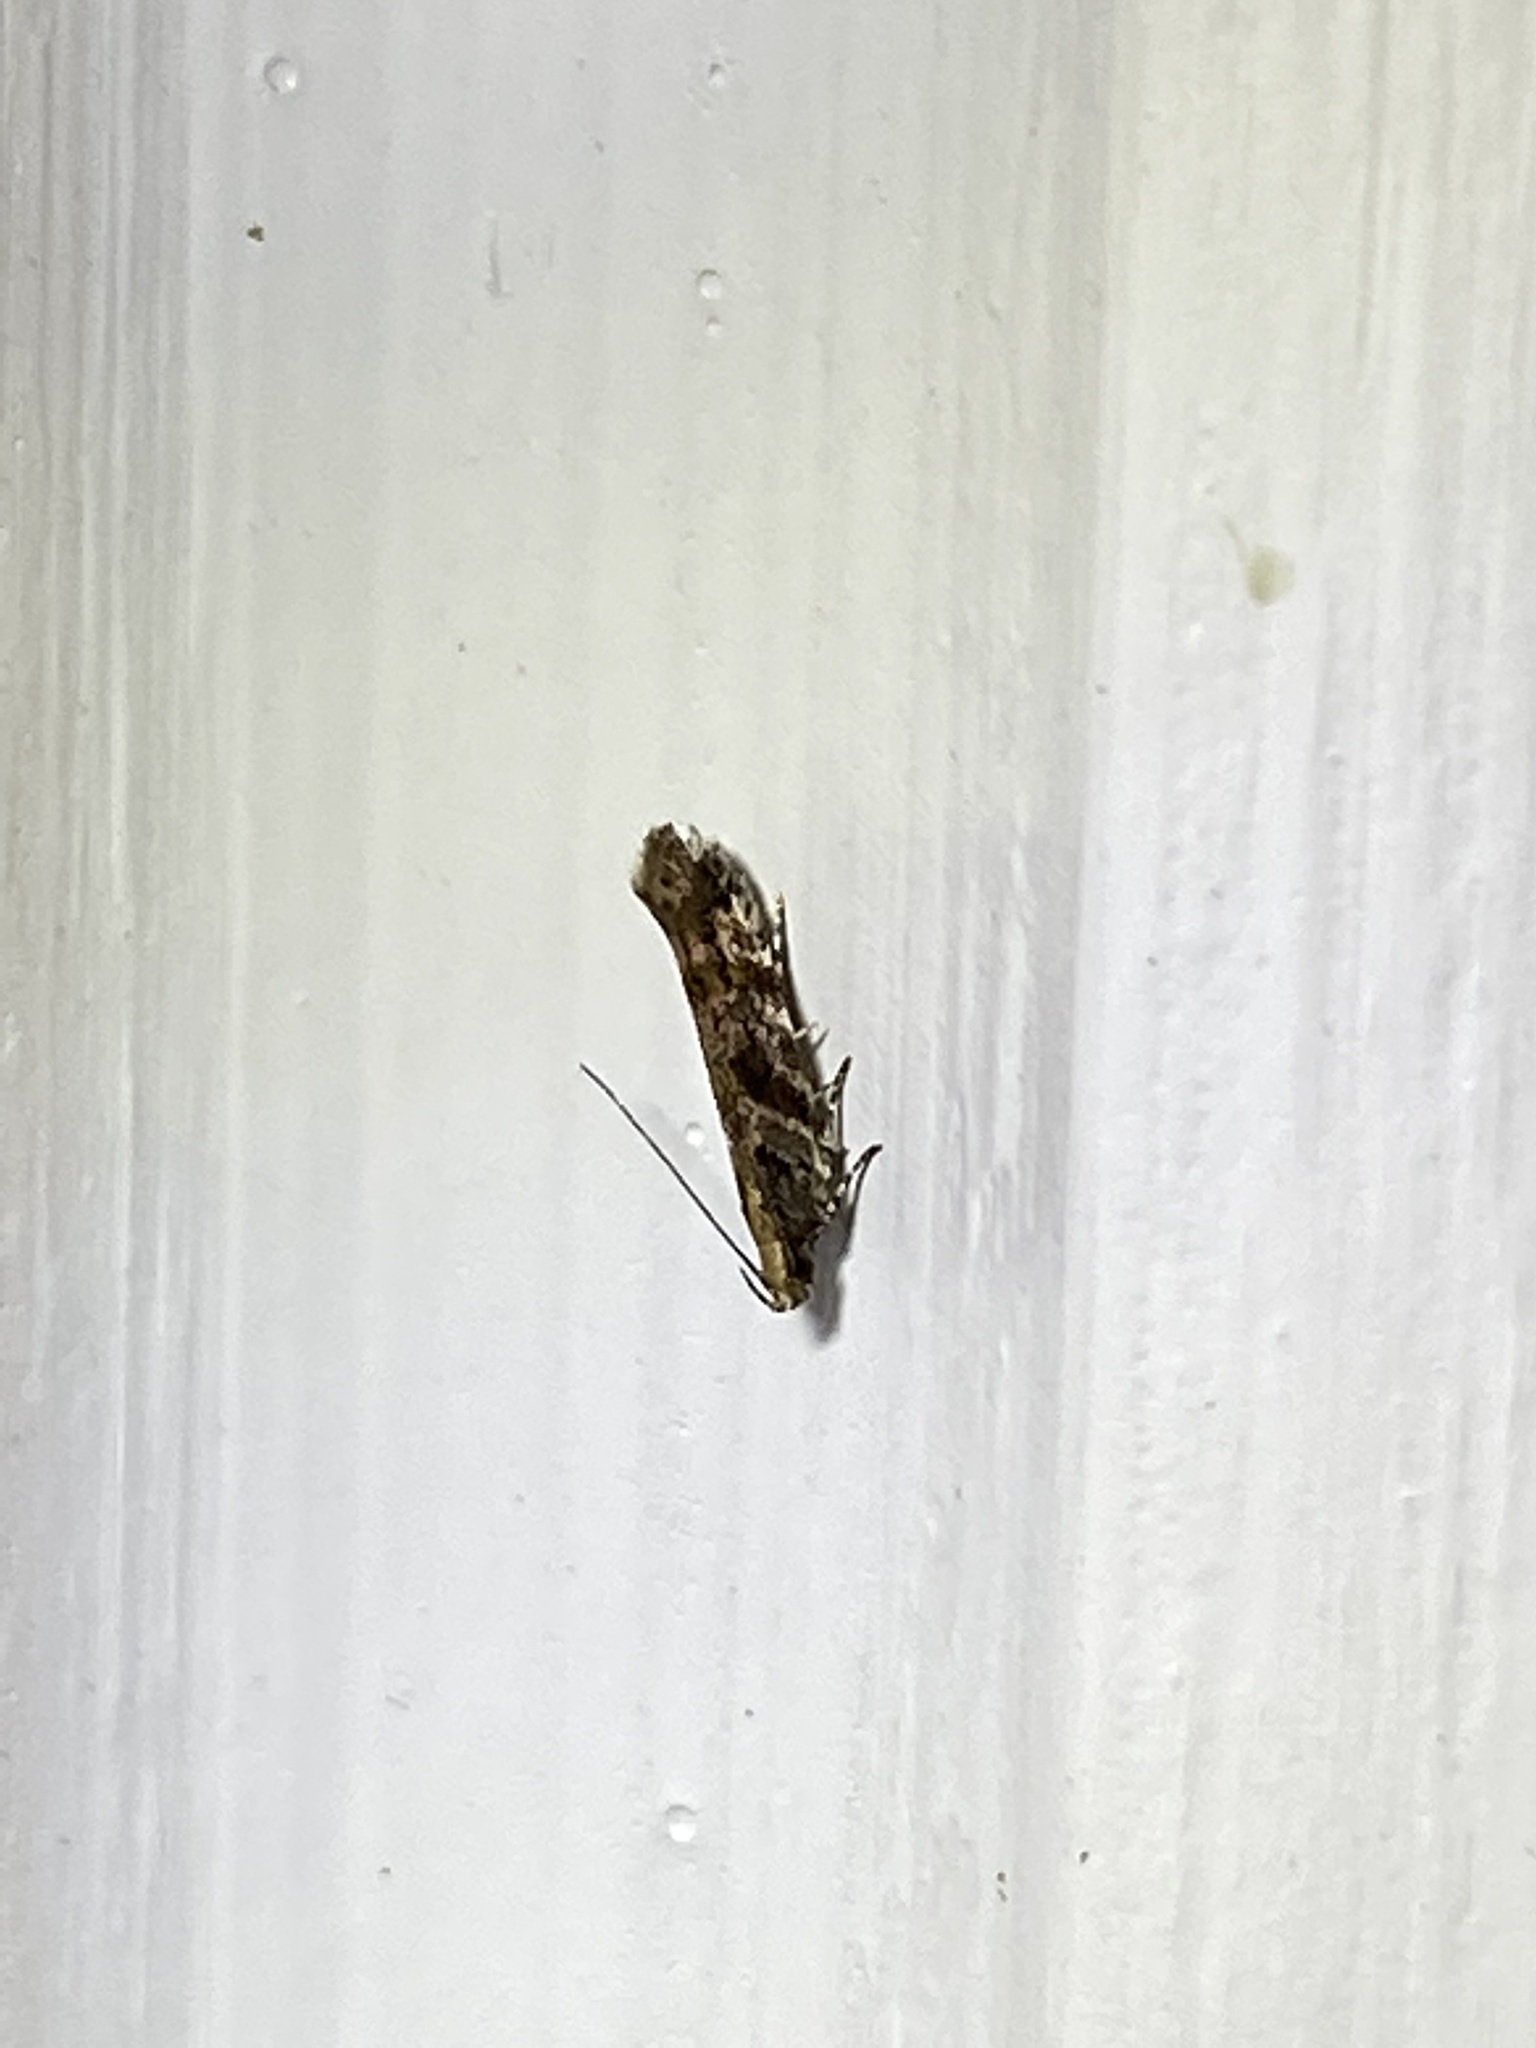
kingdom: Animalia
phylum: Arthropoda
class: Insecta
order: Lepidoptera
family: Gelechiidae
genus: Aristotelia
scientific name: Aristotelia roseosuffusella
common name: Pink-washed aristotelia moth
